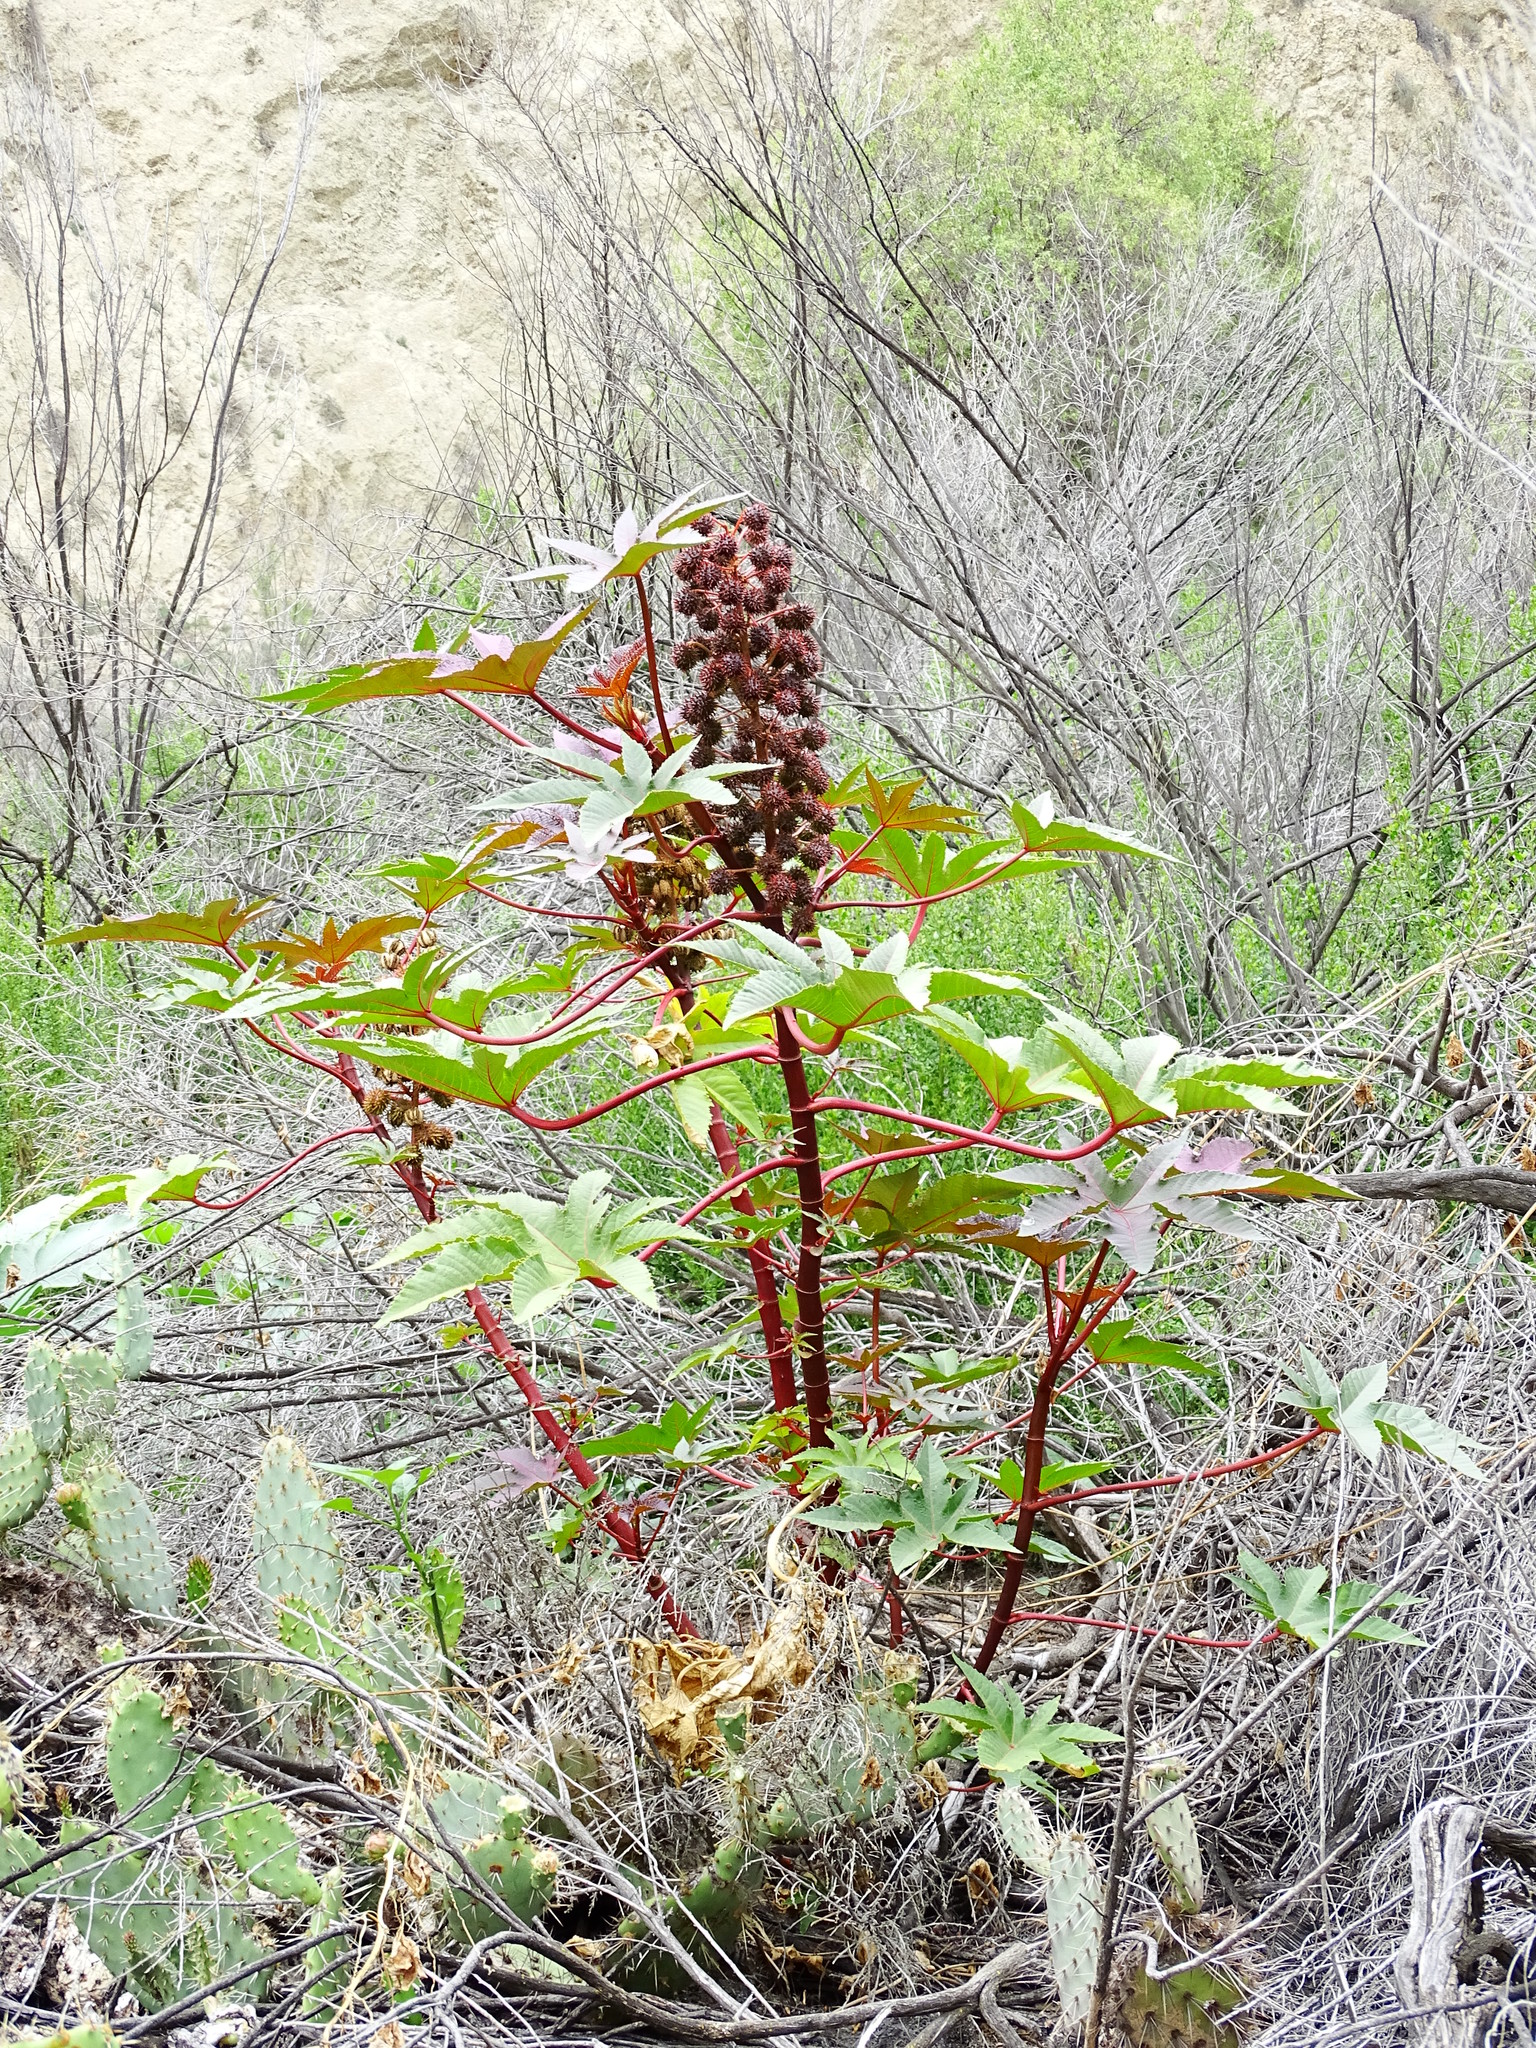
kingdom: Plantae
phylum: Tracheophyta
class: Magnoliopsida
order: Malpighiales
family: Euphorbiaceae
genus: Ricinus
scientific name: Ricinus communis
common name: Castor-oil-plant
